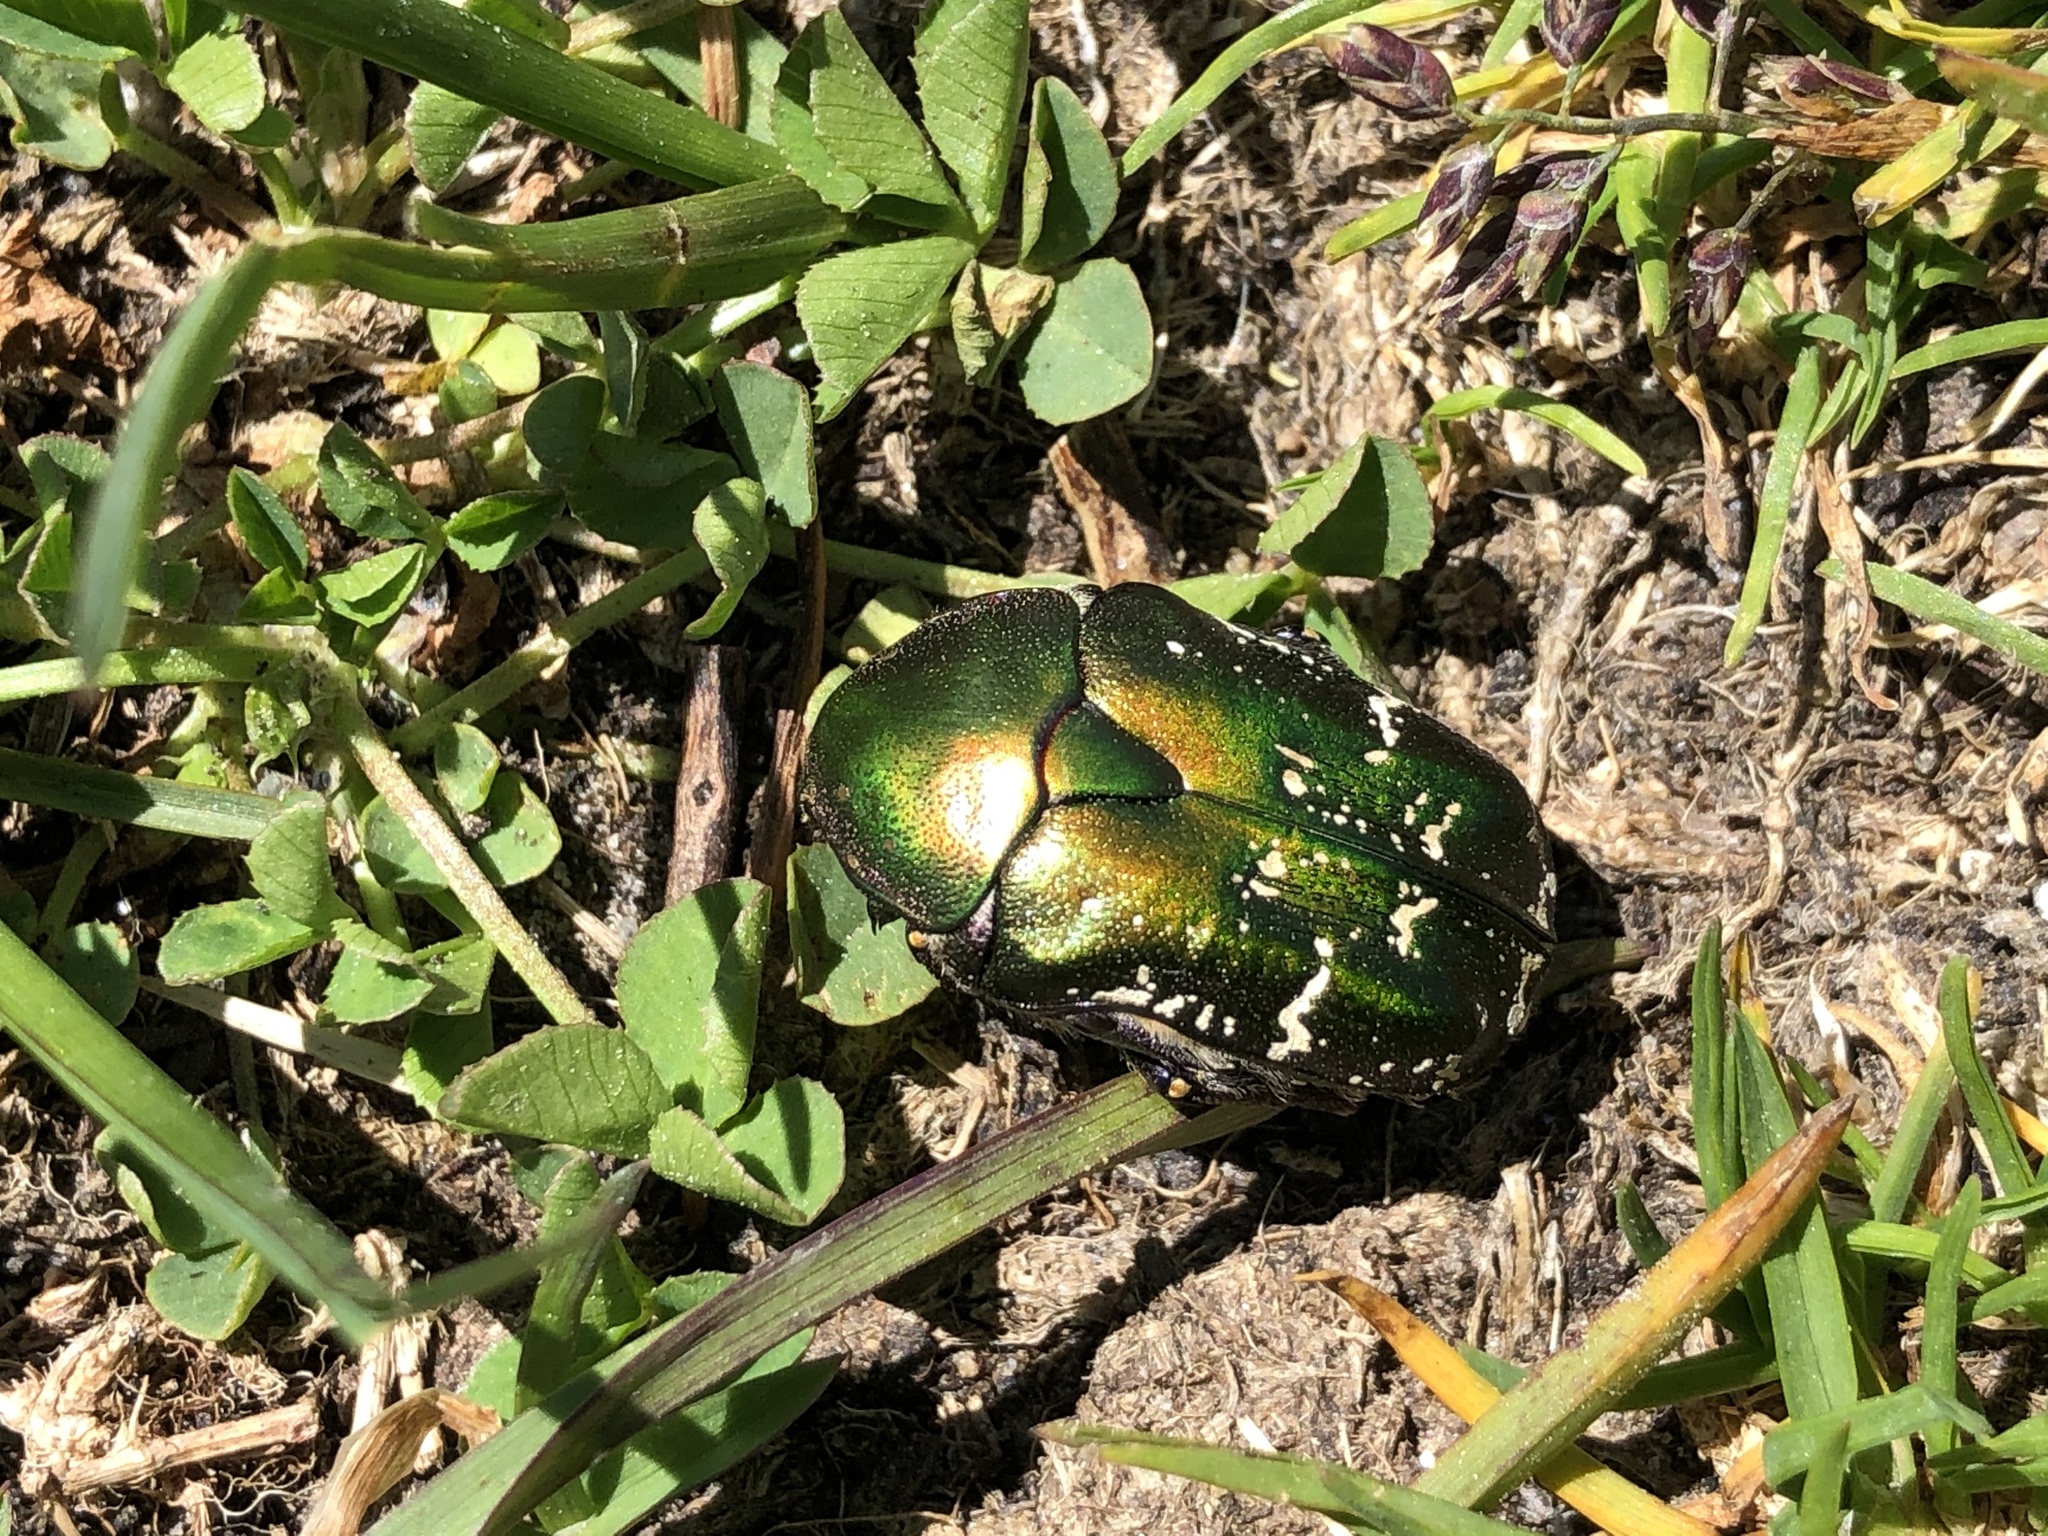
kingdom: Animalia
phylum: Arthropoda
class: Insecta
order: Coleoptera
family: Scarabaeidae
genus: Cetonia
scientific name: Cetonia aurata
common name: Rose chafer
